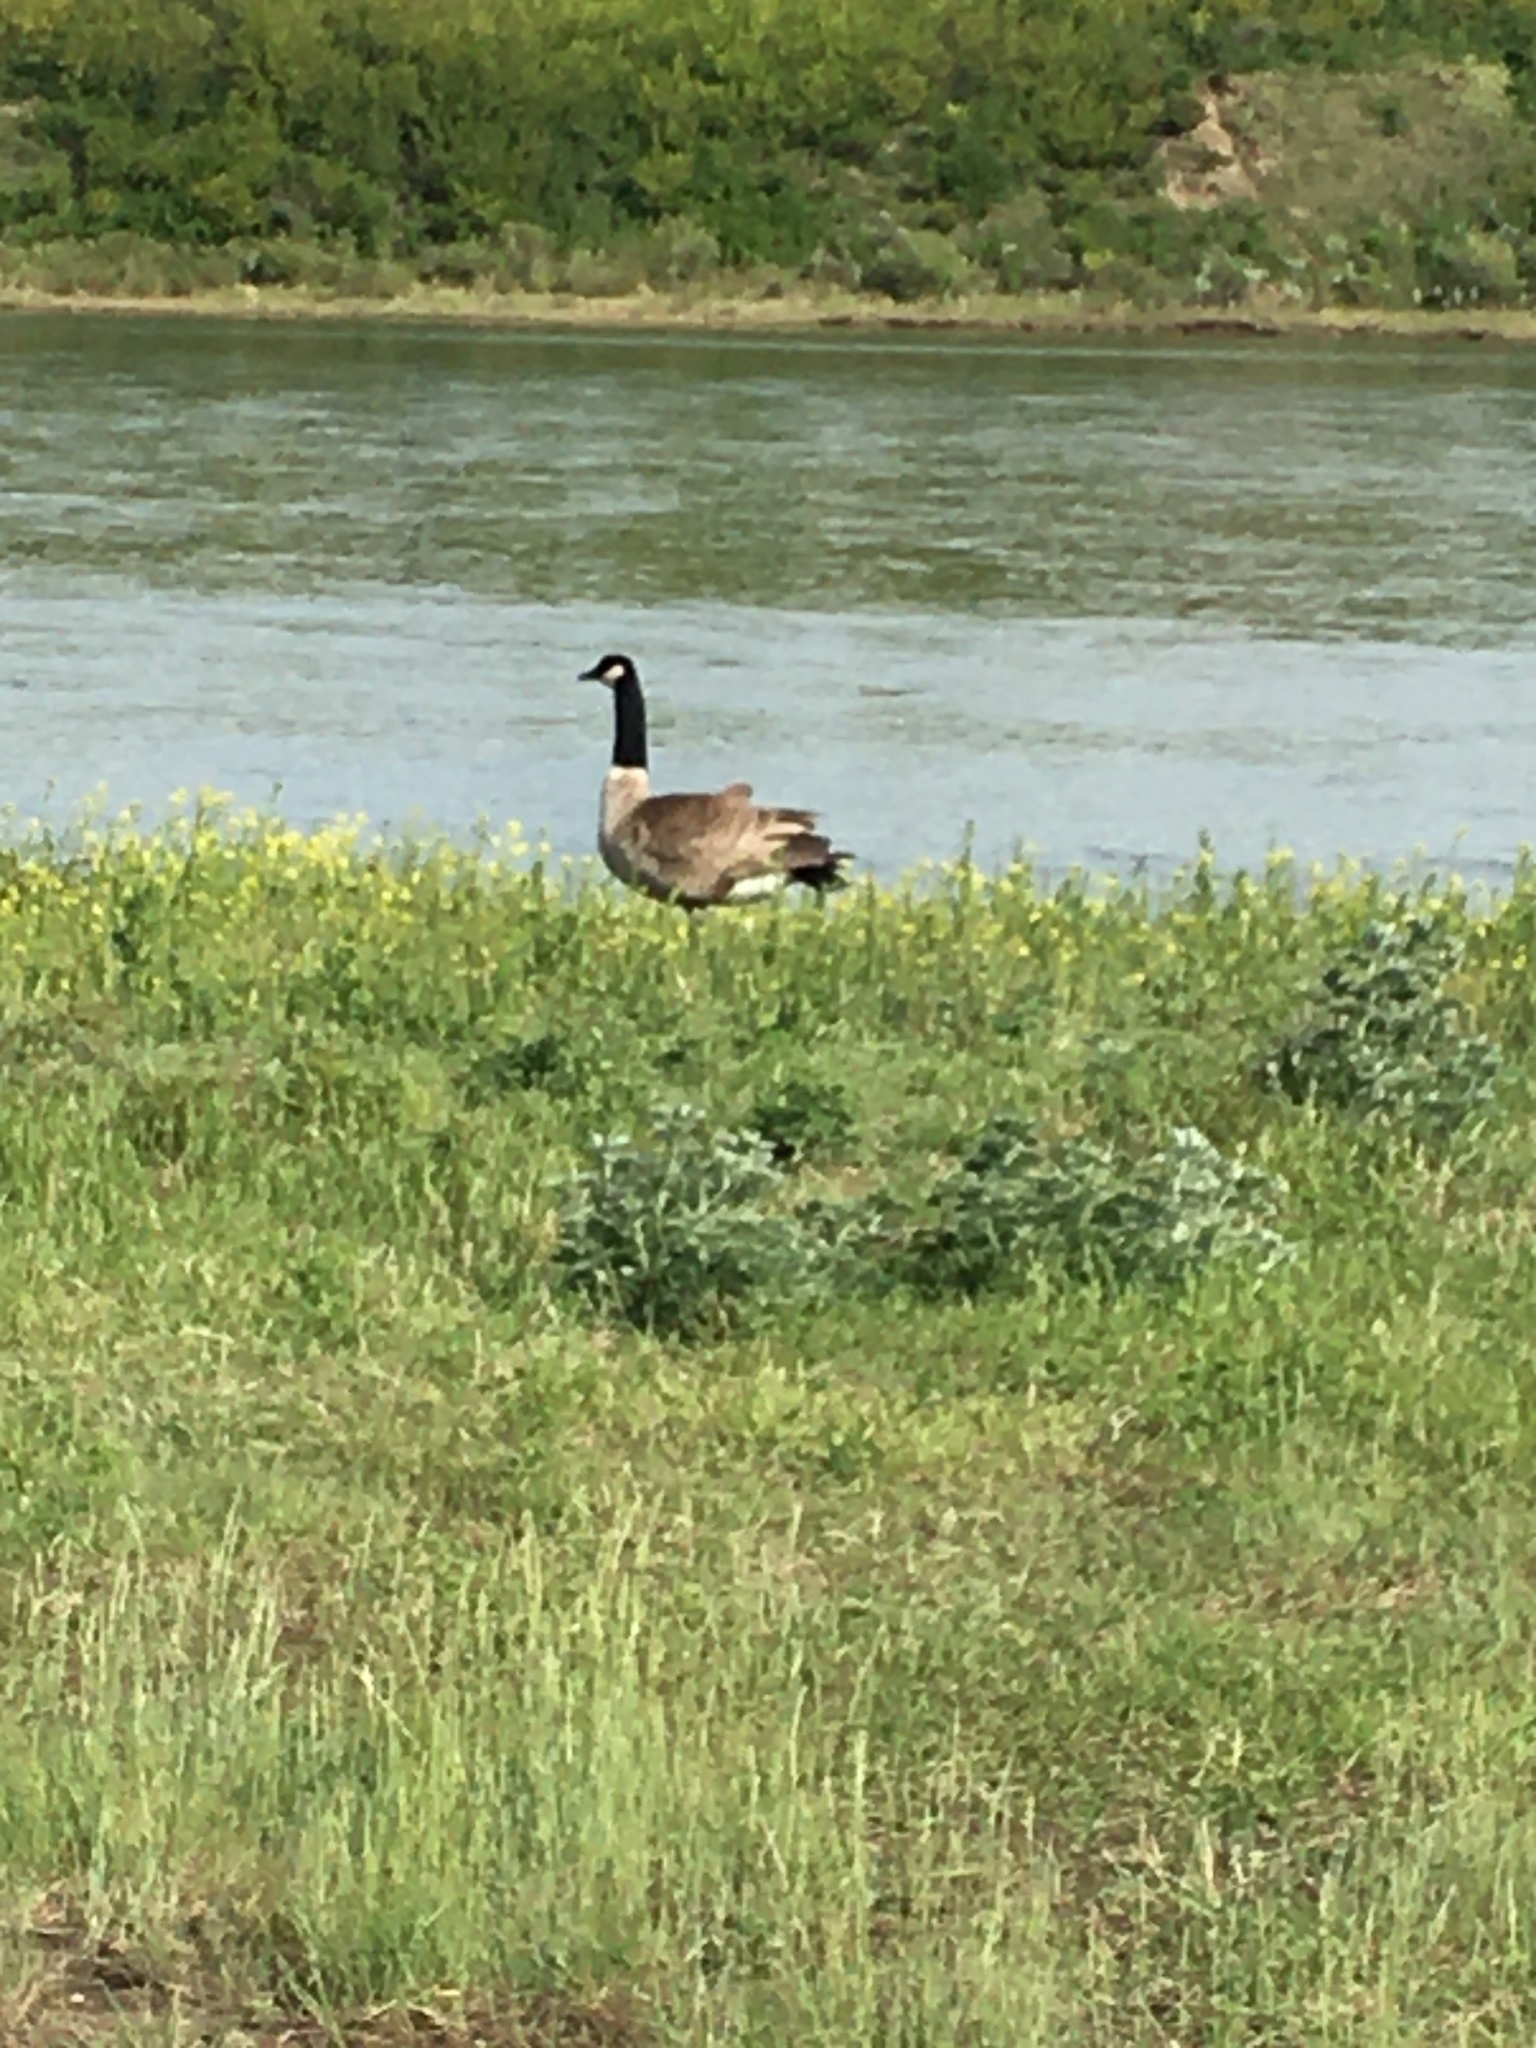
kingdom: Animalia
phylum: Chordata
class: Aves
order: Anseriformes
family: Anatidae
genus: Branta
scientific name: Branta canadensis
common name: Canada goose
